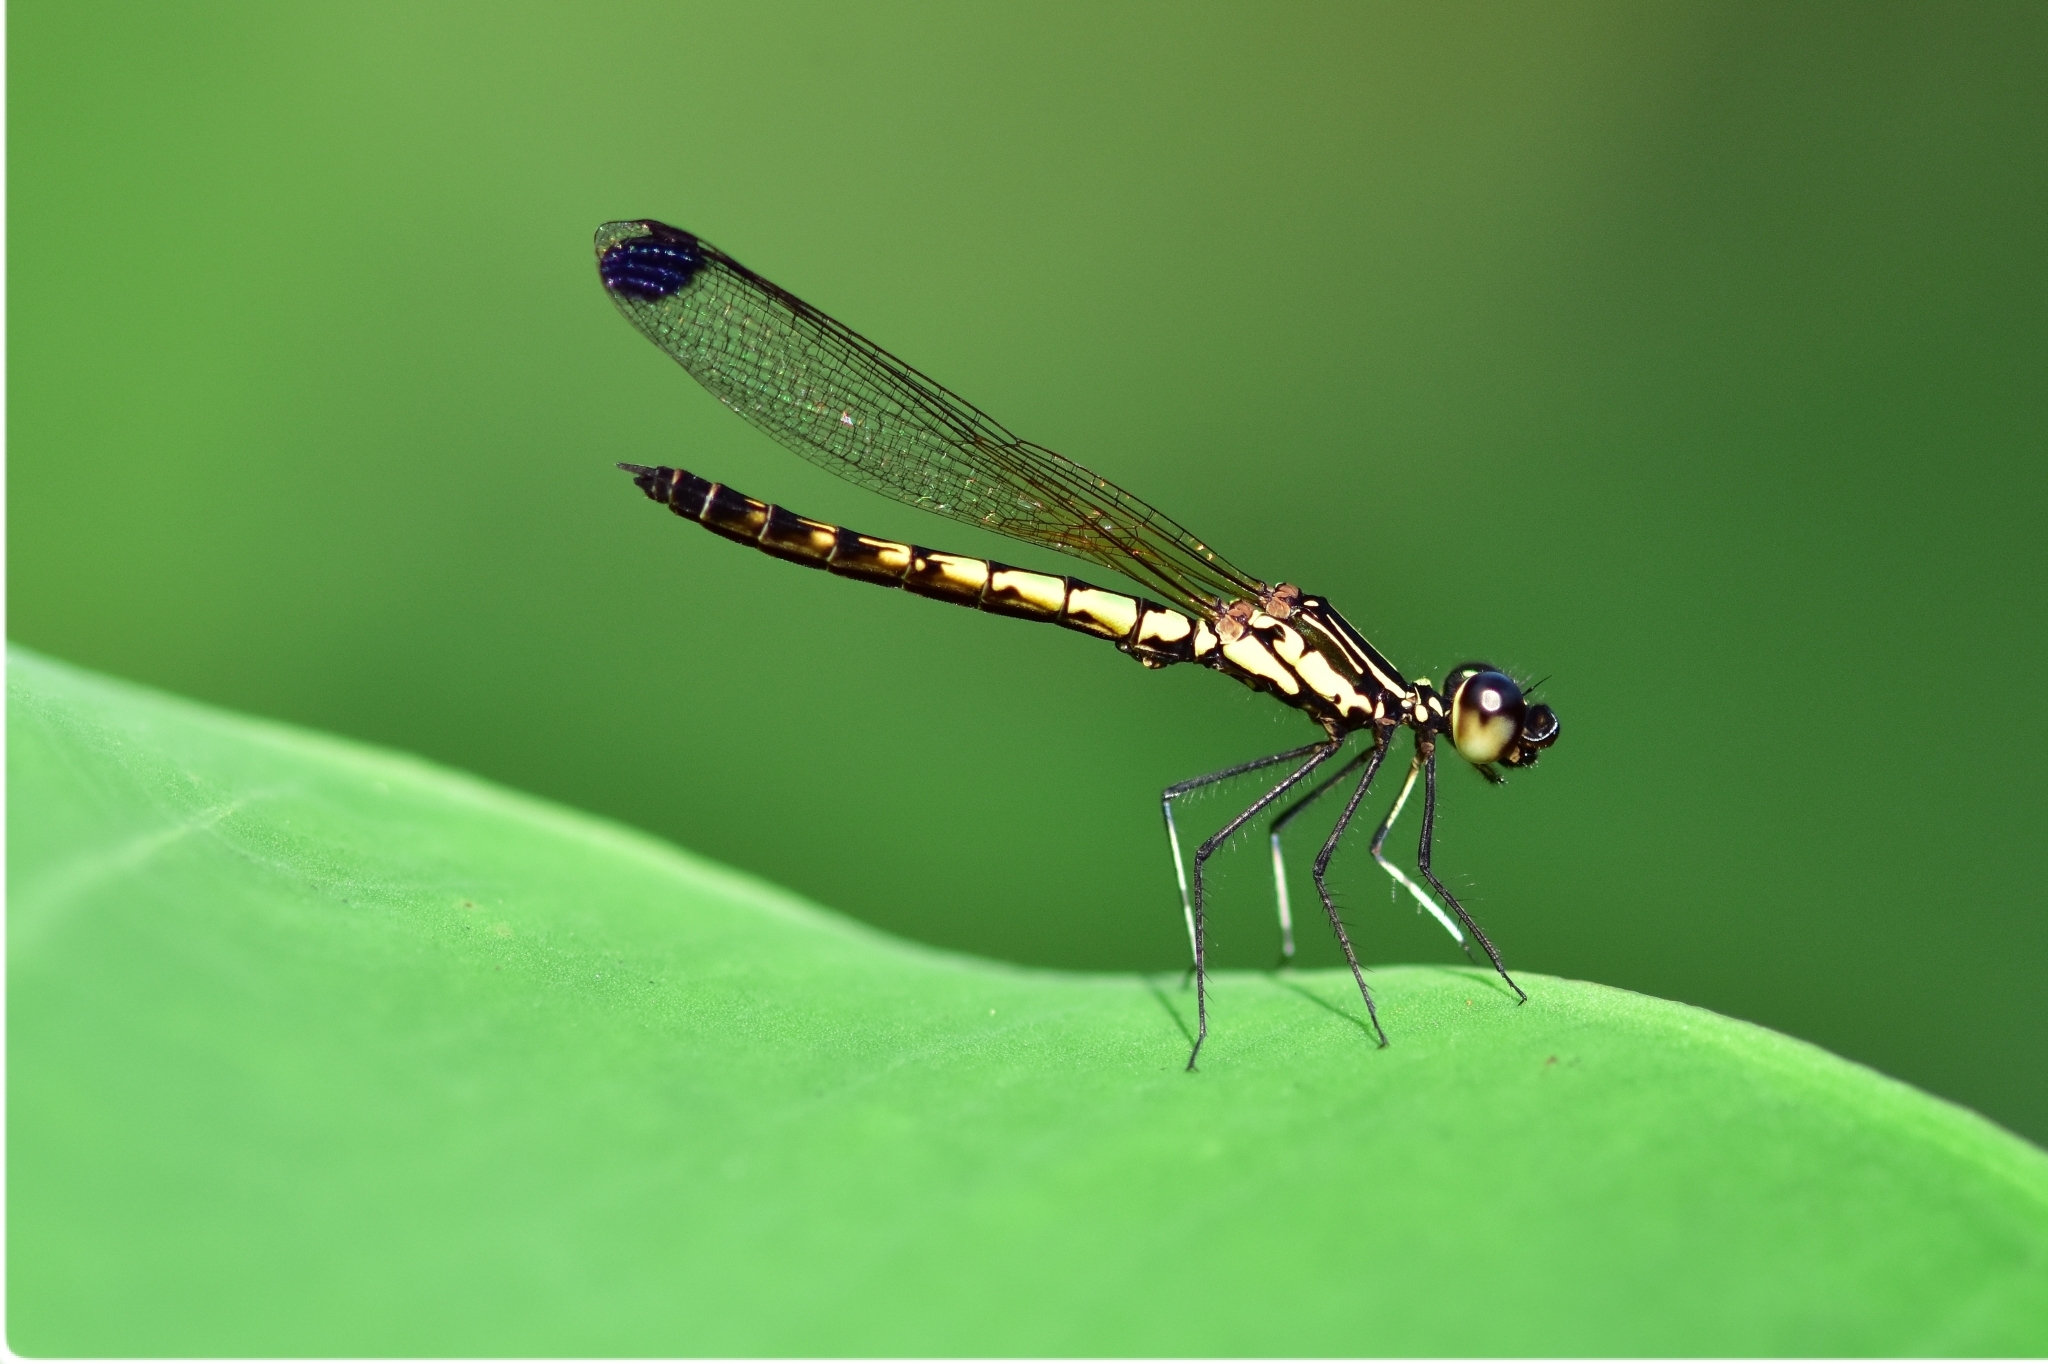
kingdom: Animalia
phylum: Arthropoda
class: Insecta
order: Odonata
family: Chlorocyphidae
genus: Libellago
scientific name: Libellago indica
